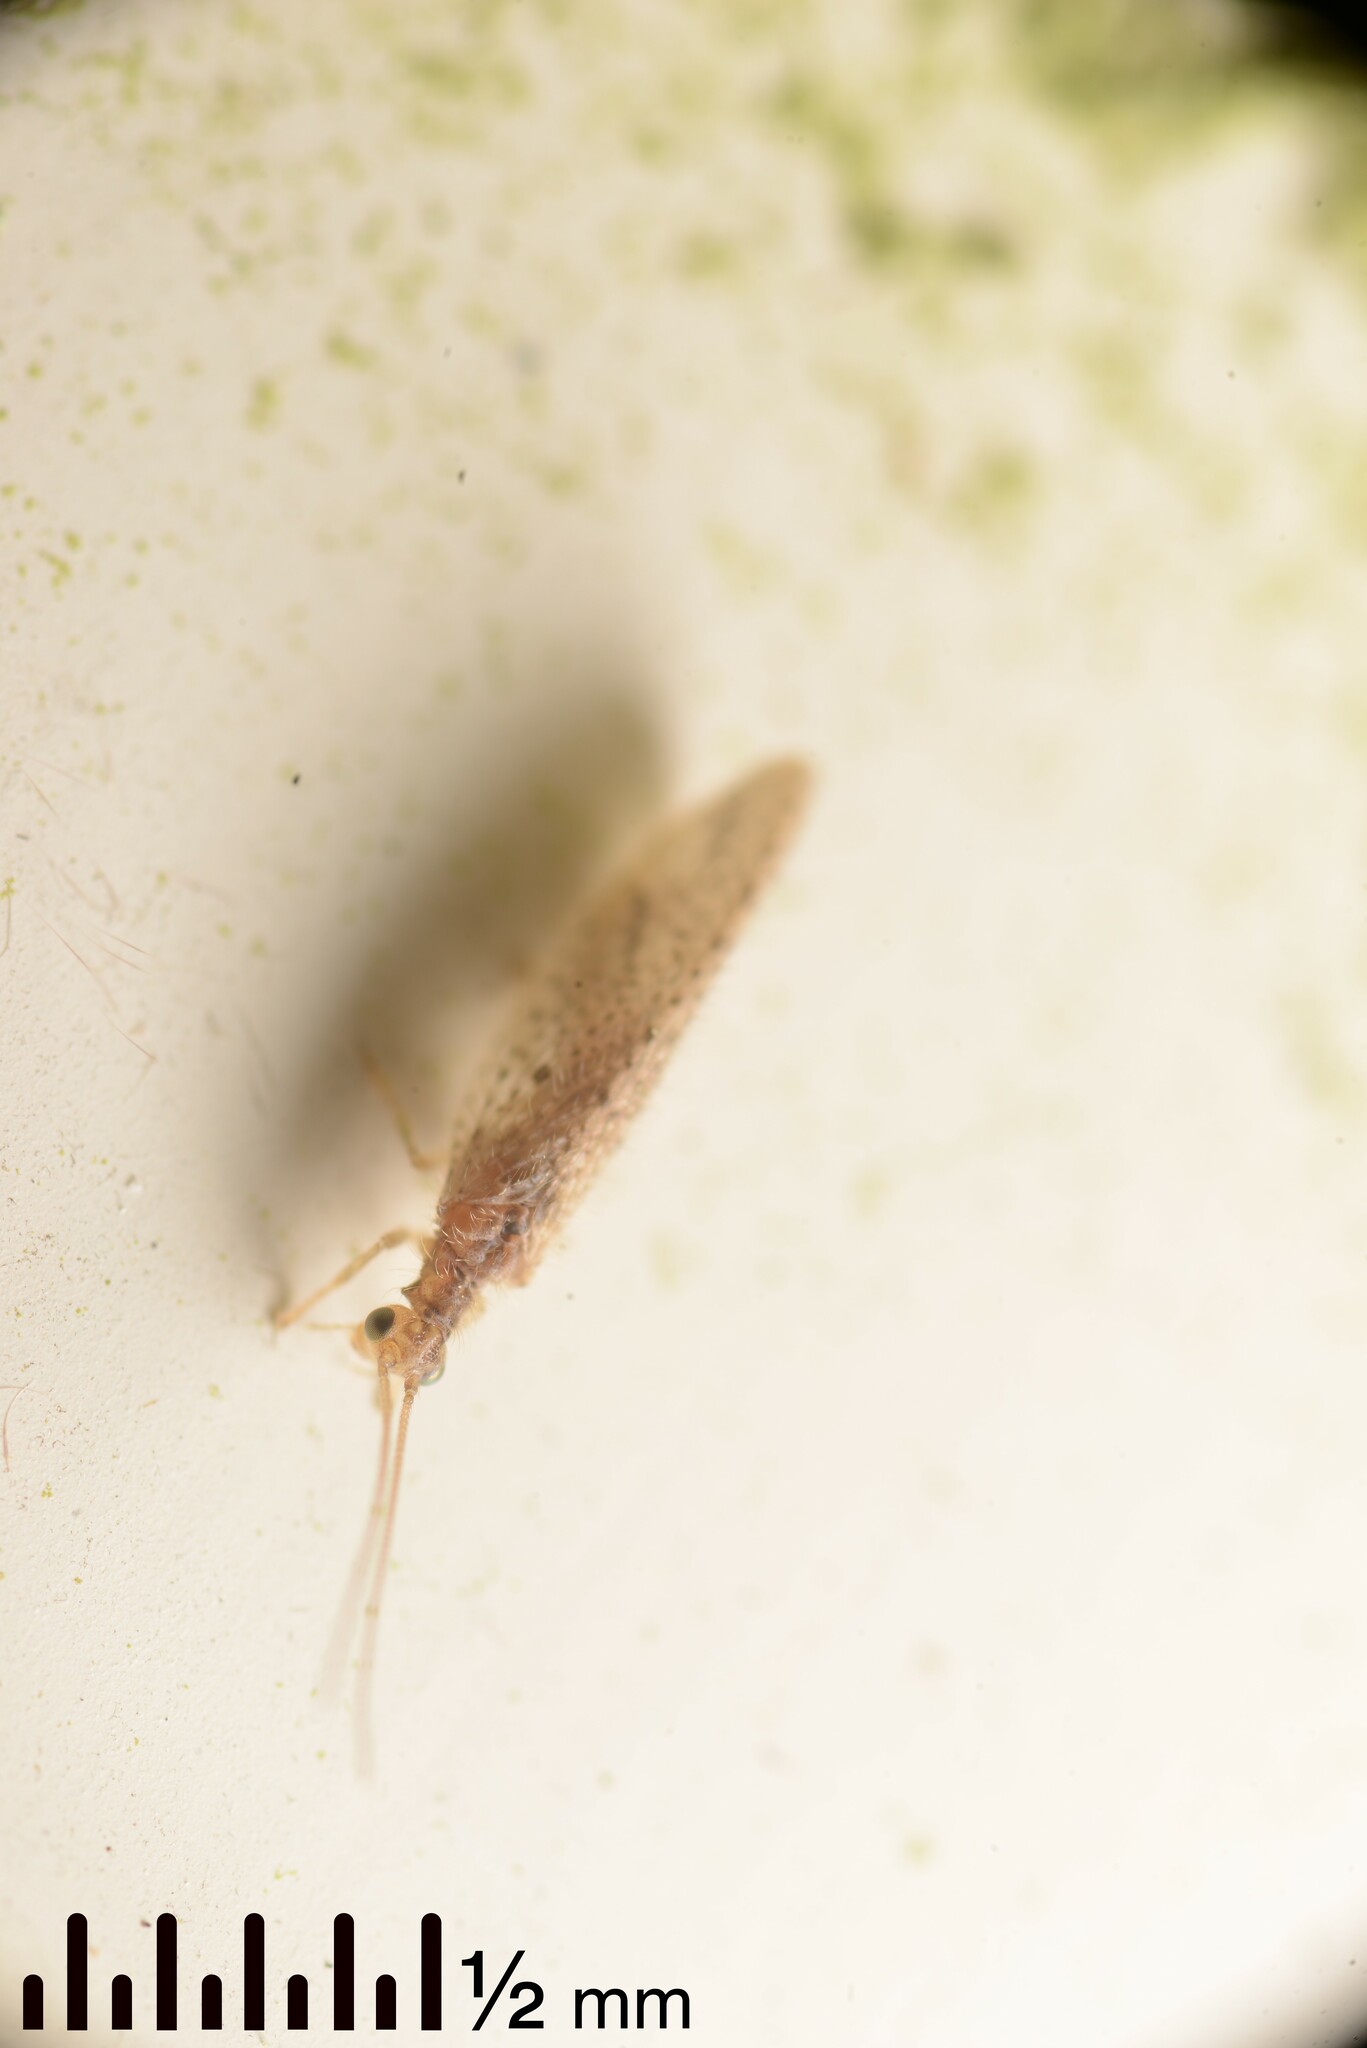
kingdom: Animalia
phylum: Arthropoda
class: Insecta
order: Neuroptera
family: Hemerobiidae
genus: Micromus
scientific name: Micromus tasmaniae
